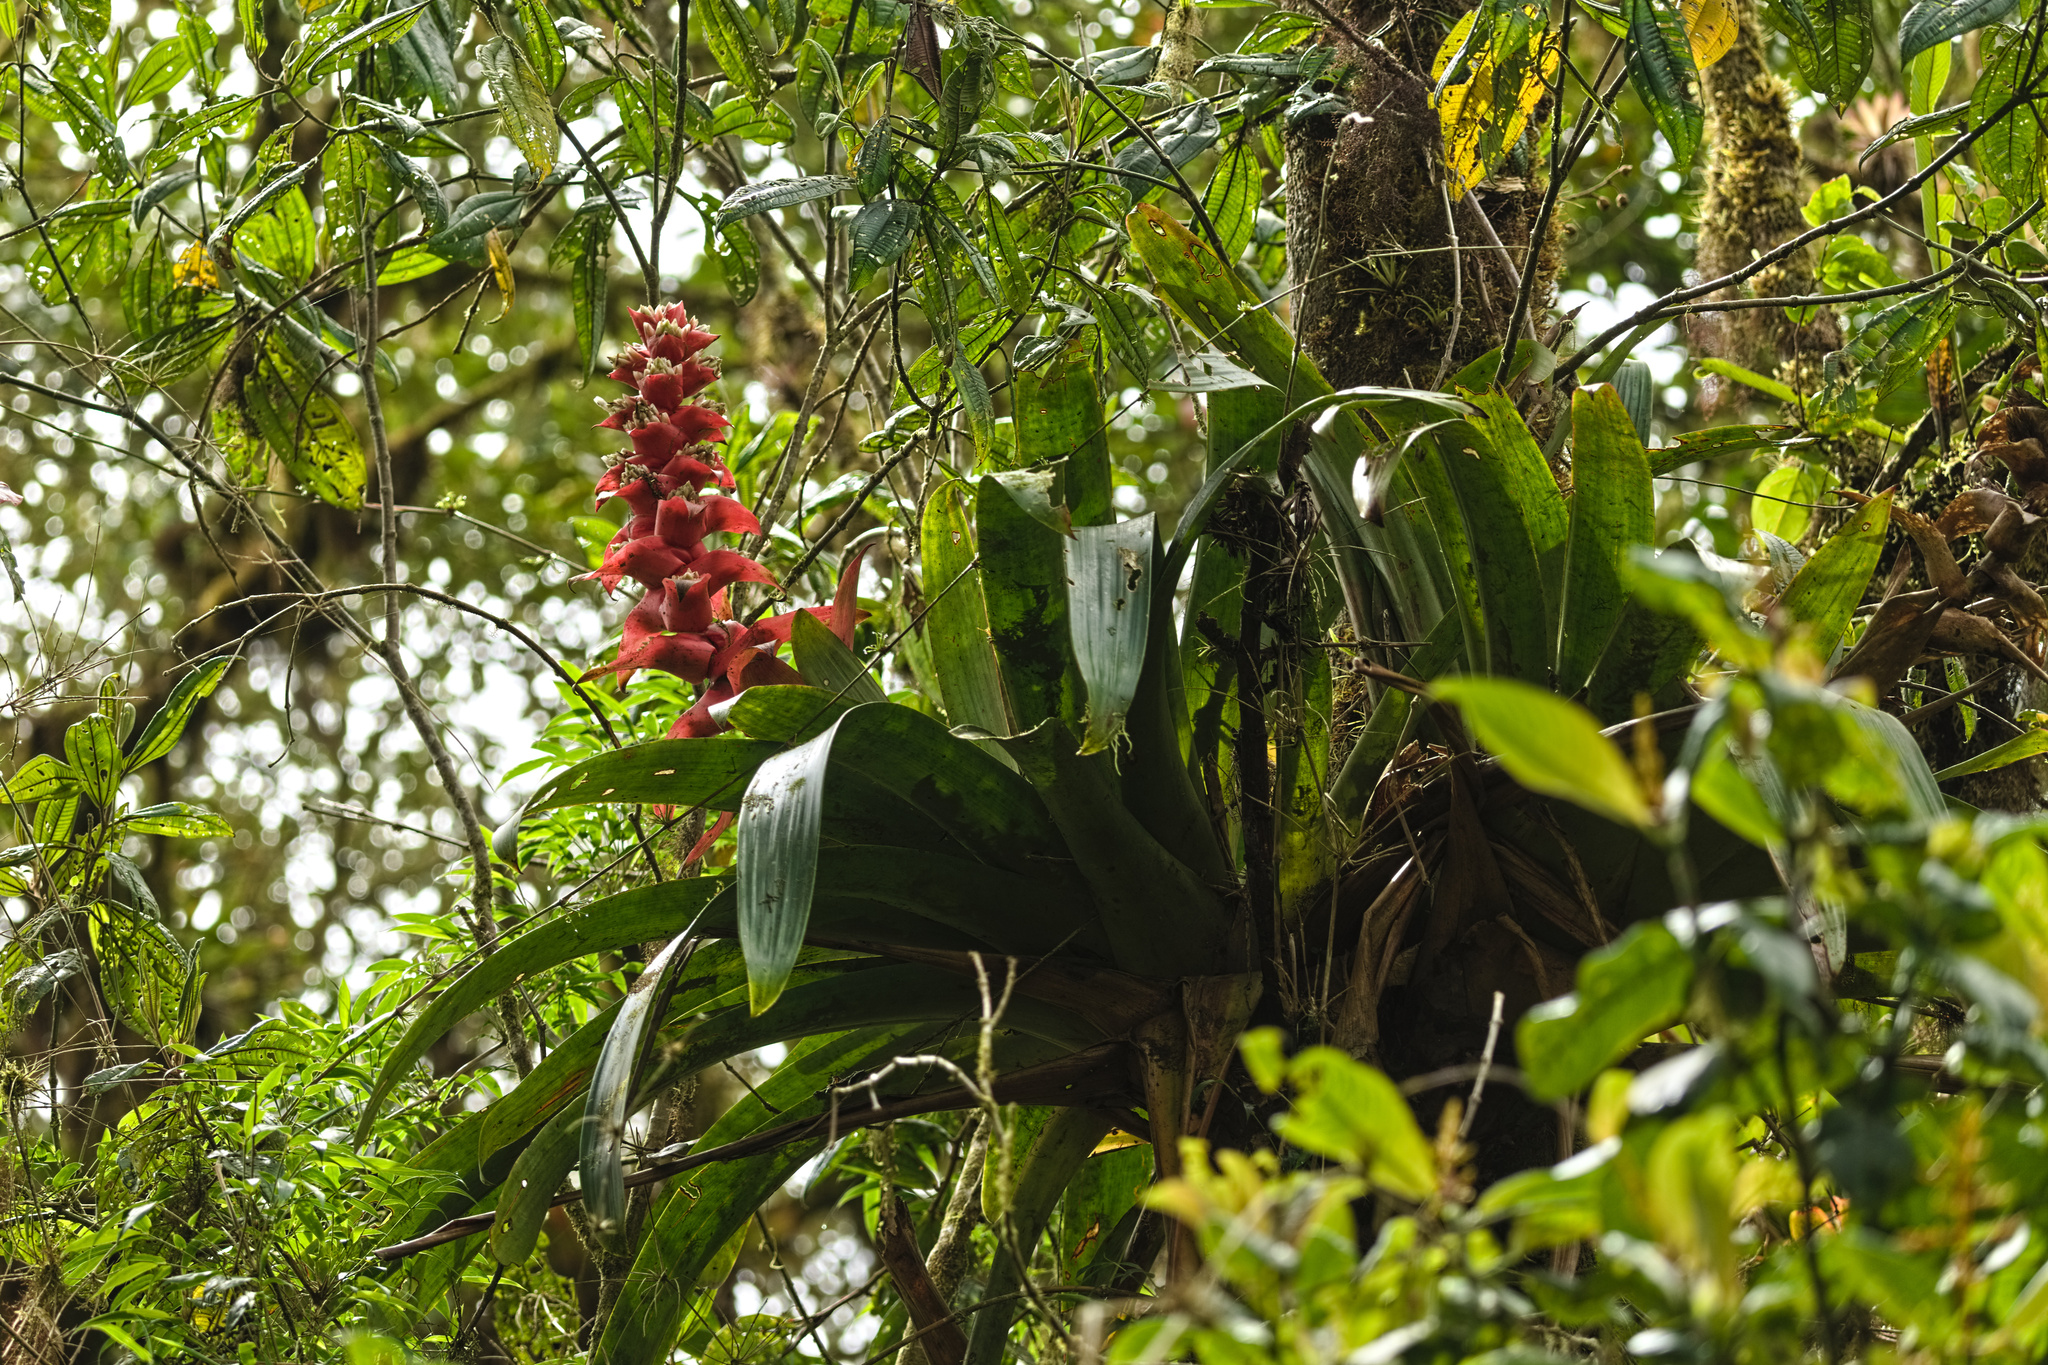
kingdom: Plantae
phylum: Tracheophyta
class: Liliopsida
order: Poales
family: Bromeliaceae
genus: Guzmania
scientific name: Guzmania variegata
